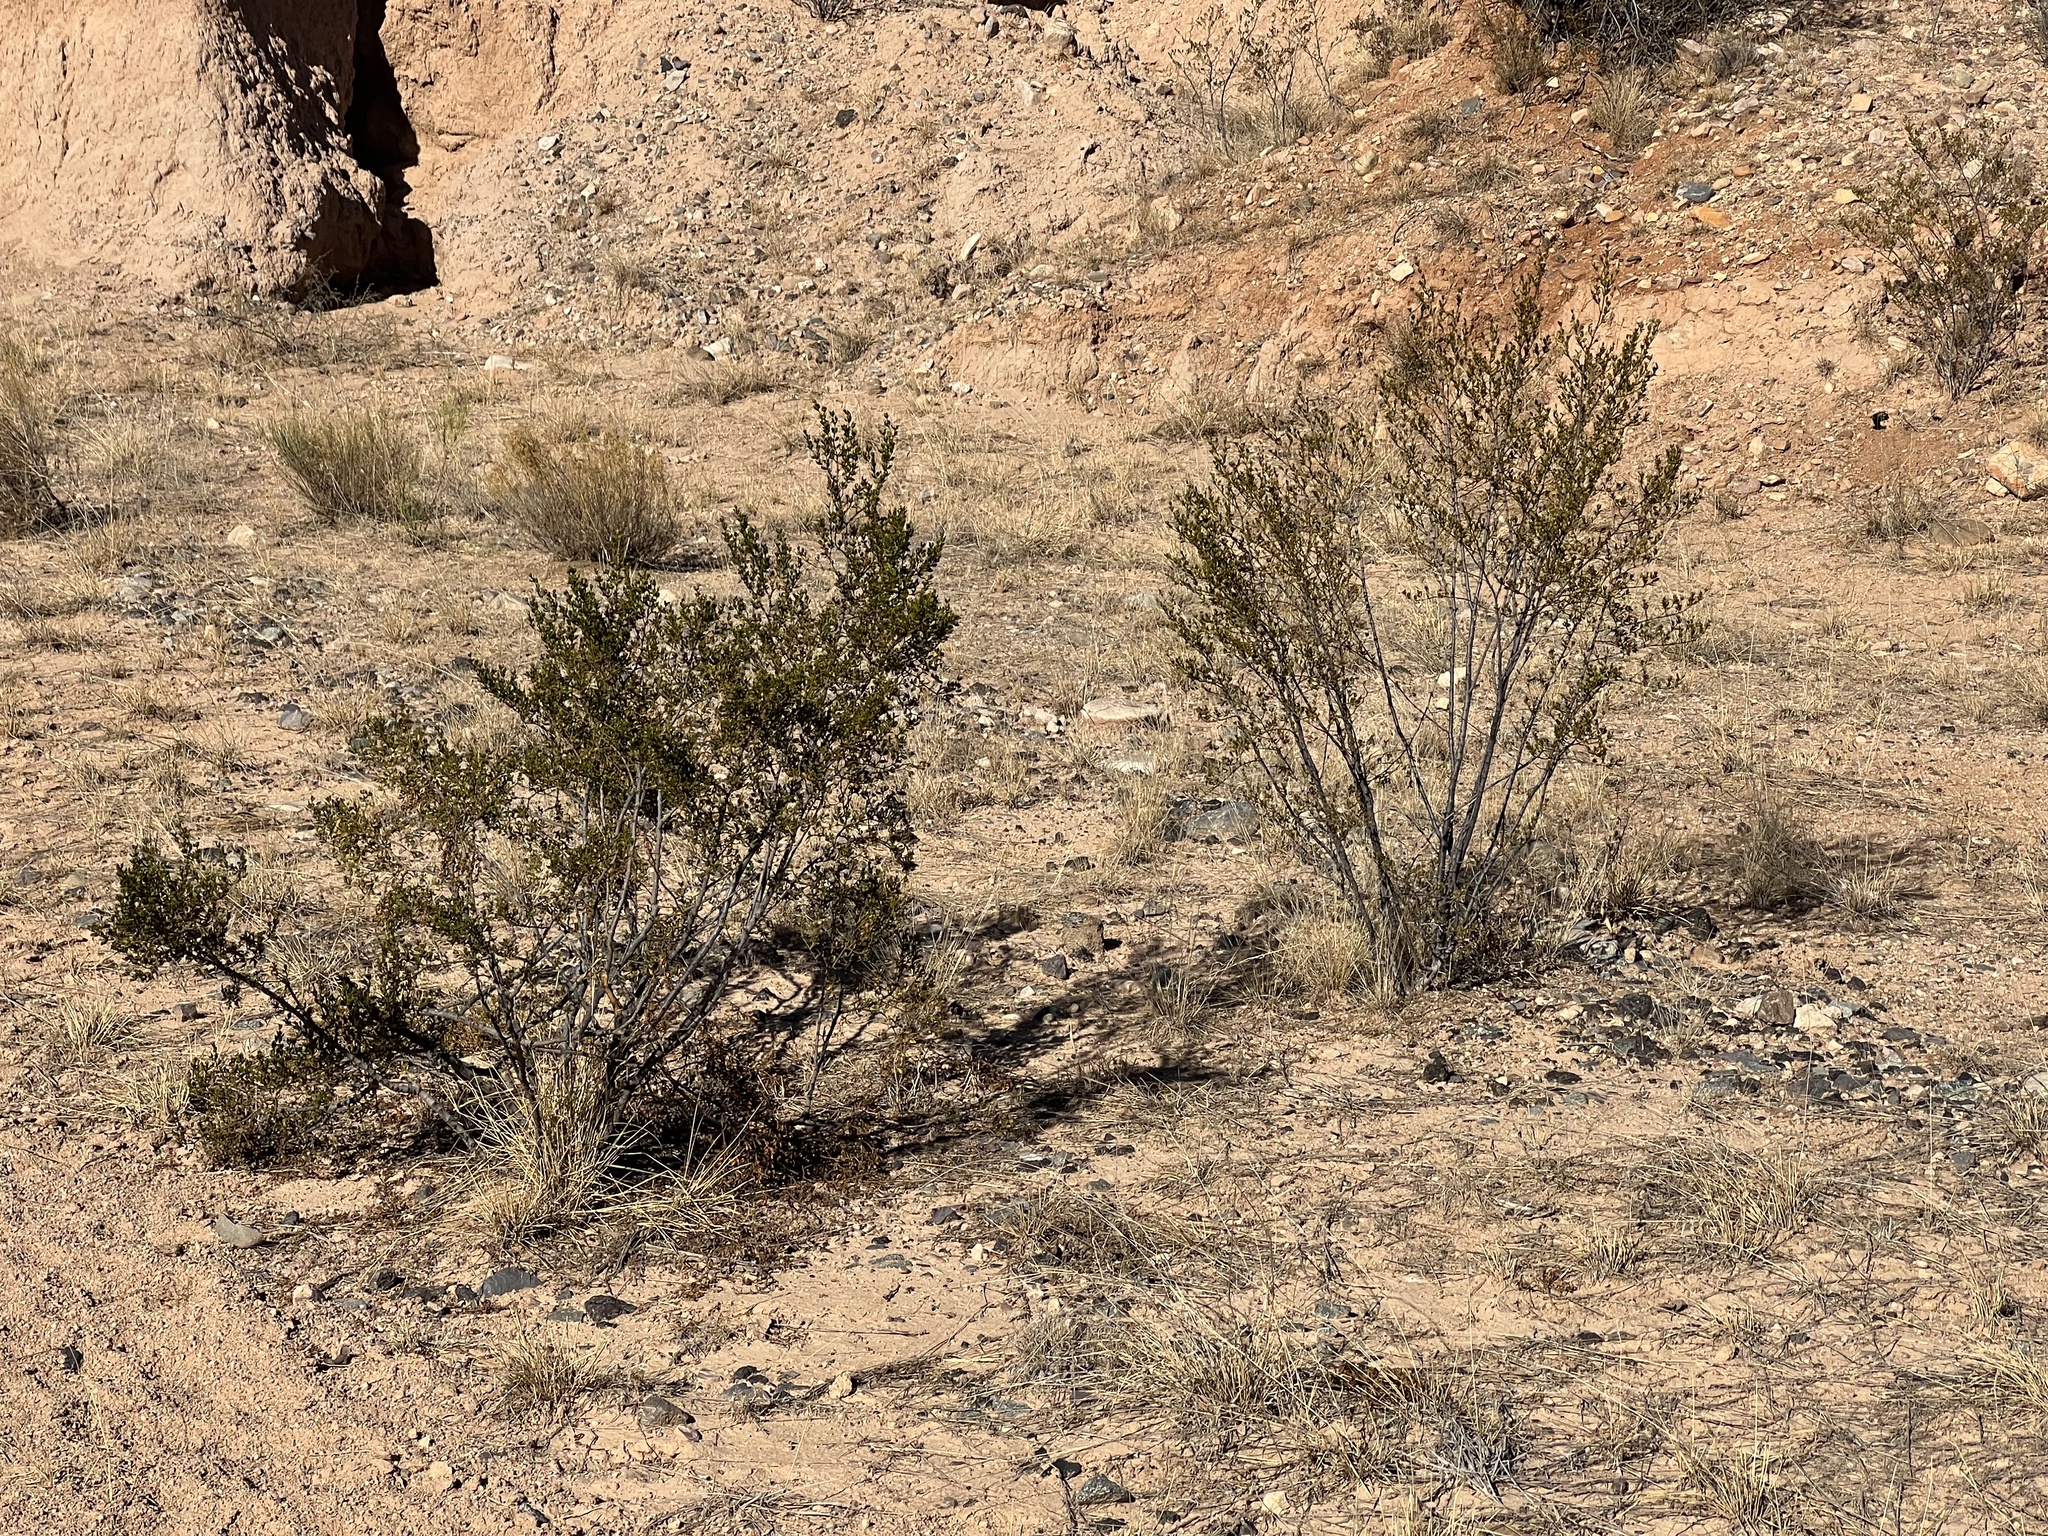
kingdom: Plantae
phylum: Tracheophyta
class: Magnoliopsida
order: Zygophyllales
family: Zygophyllaceae
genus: Larrea
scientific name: Larrea tridentata
